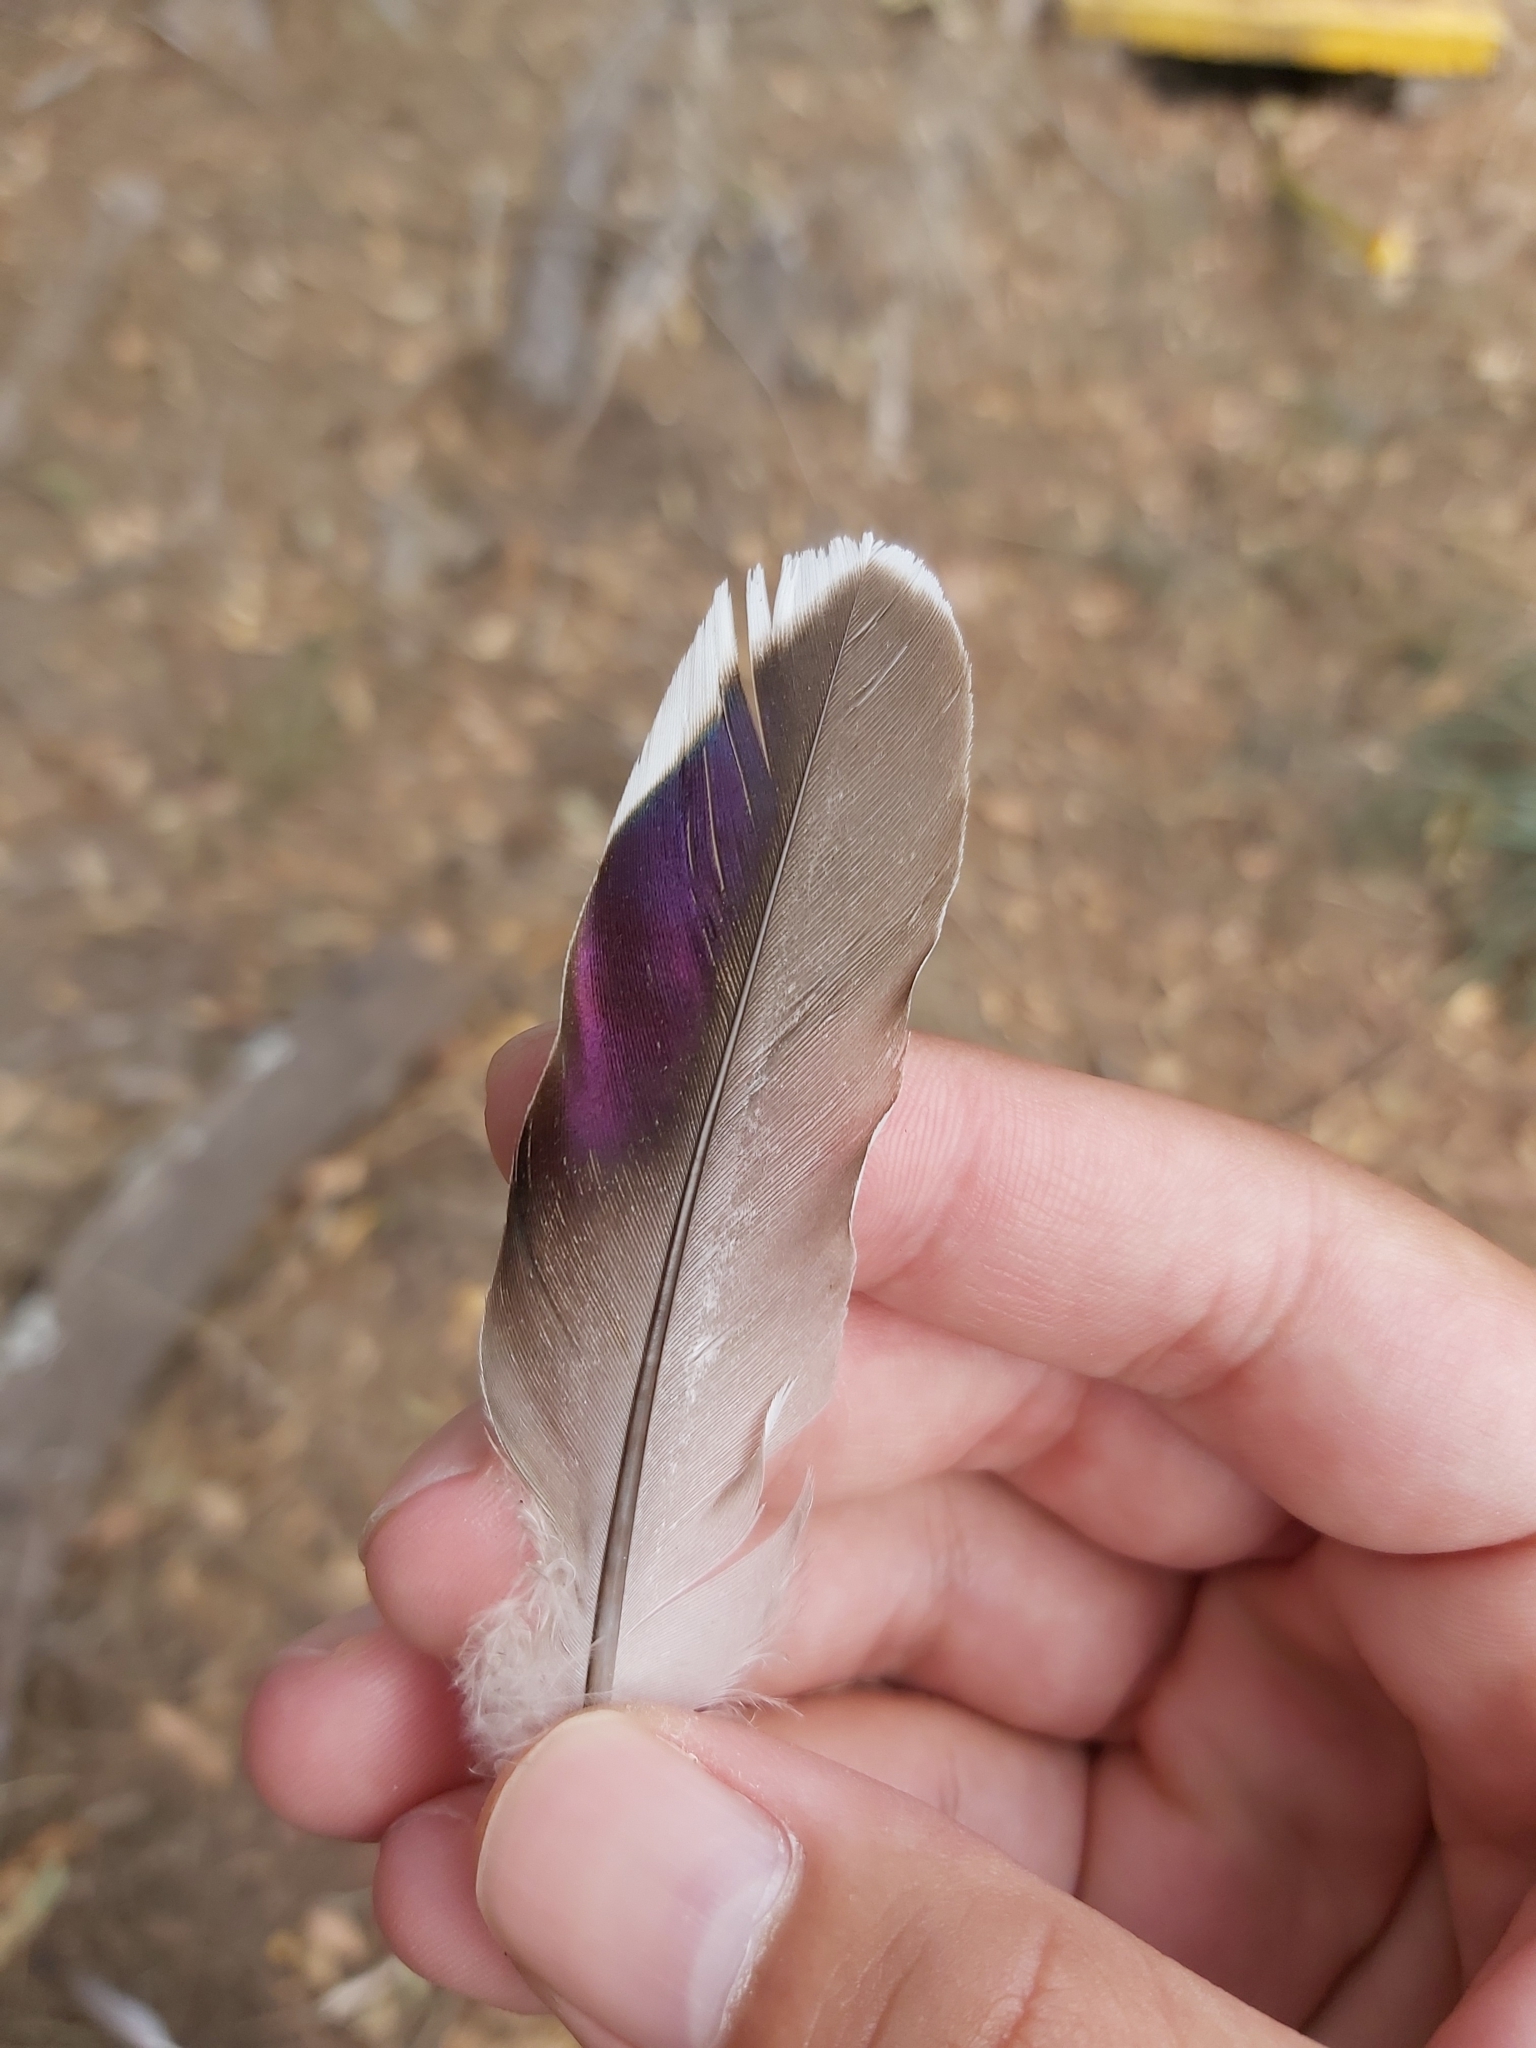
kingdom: Animalia
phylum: Chordata
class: Aves
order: Columbiformes
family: Columbidae
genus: Ocyphaps
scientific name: Ocyphaps lophotes
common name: Crested pigeon
